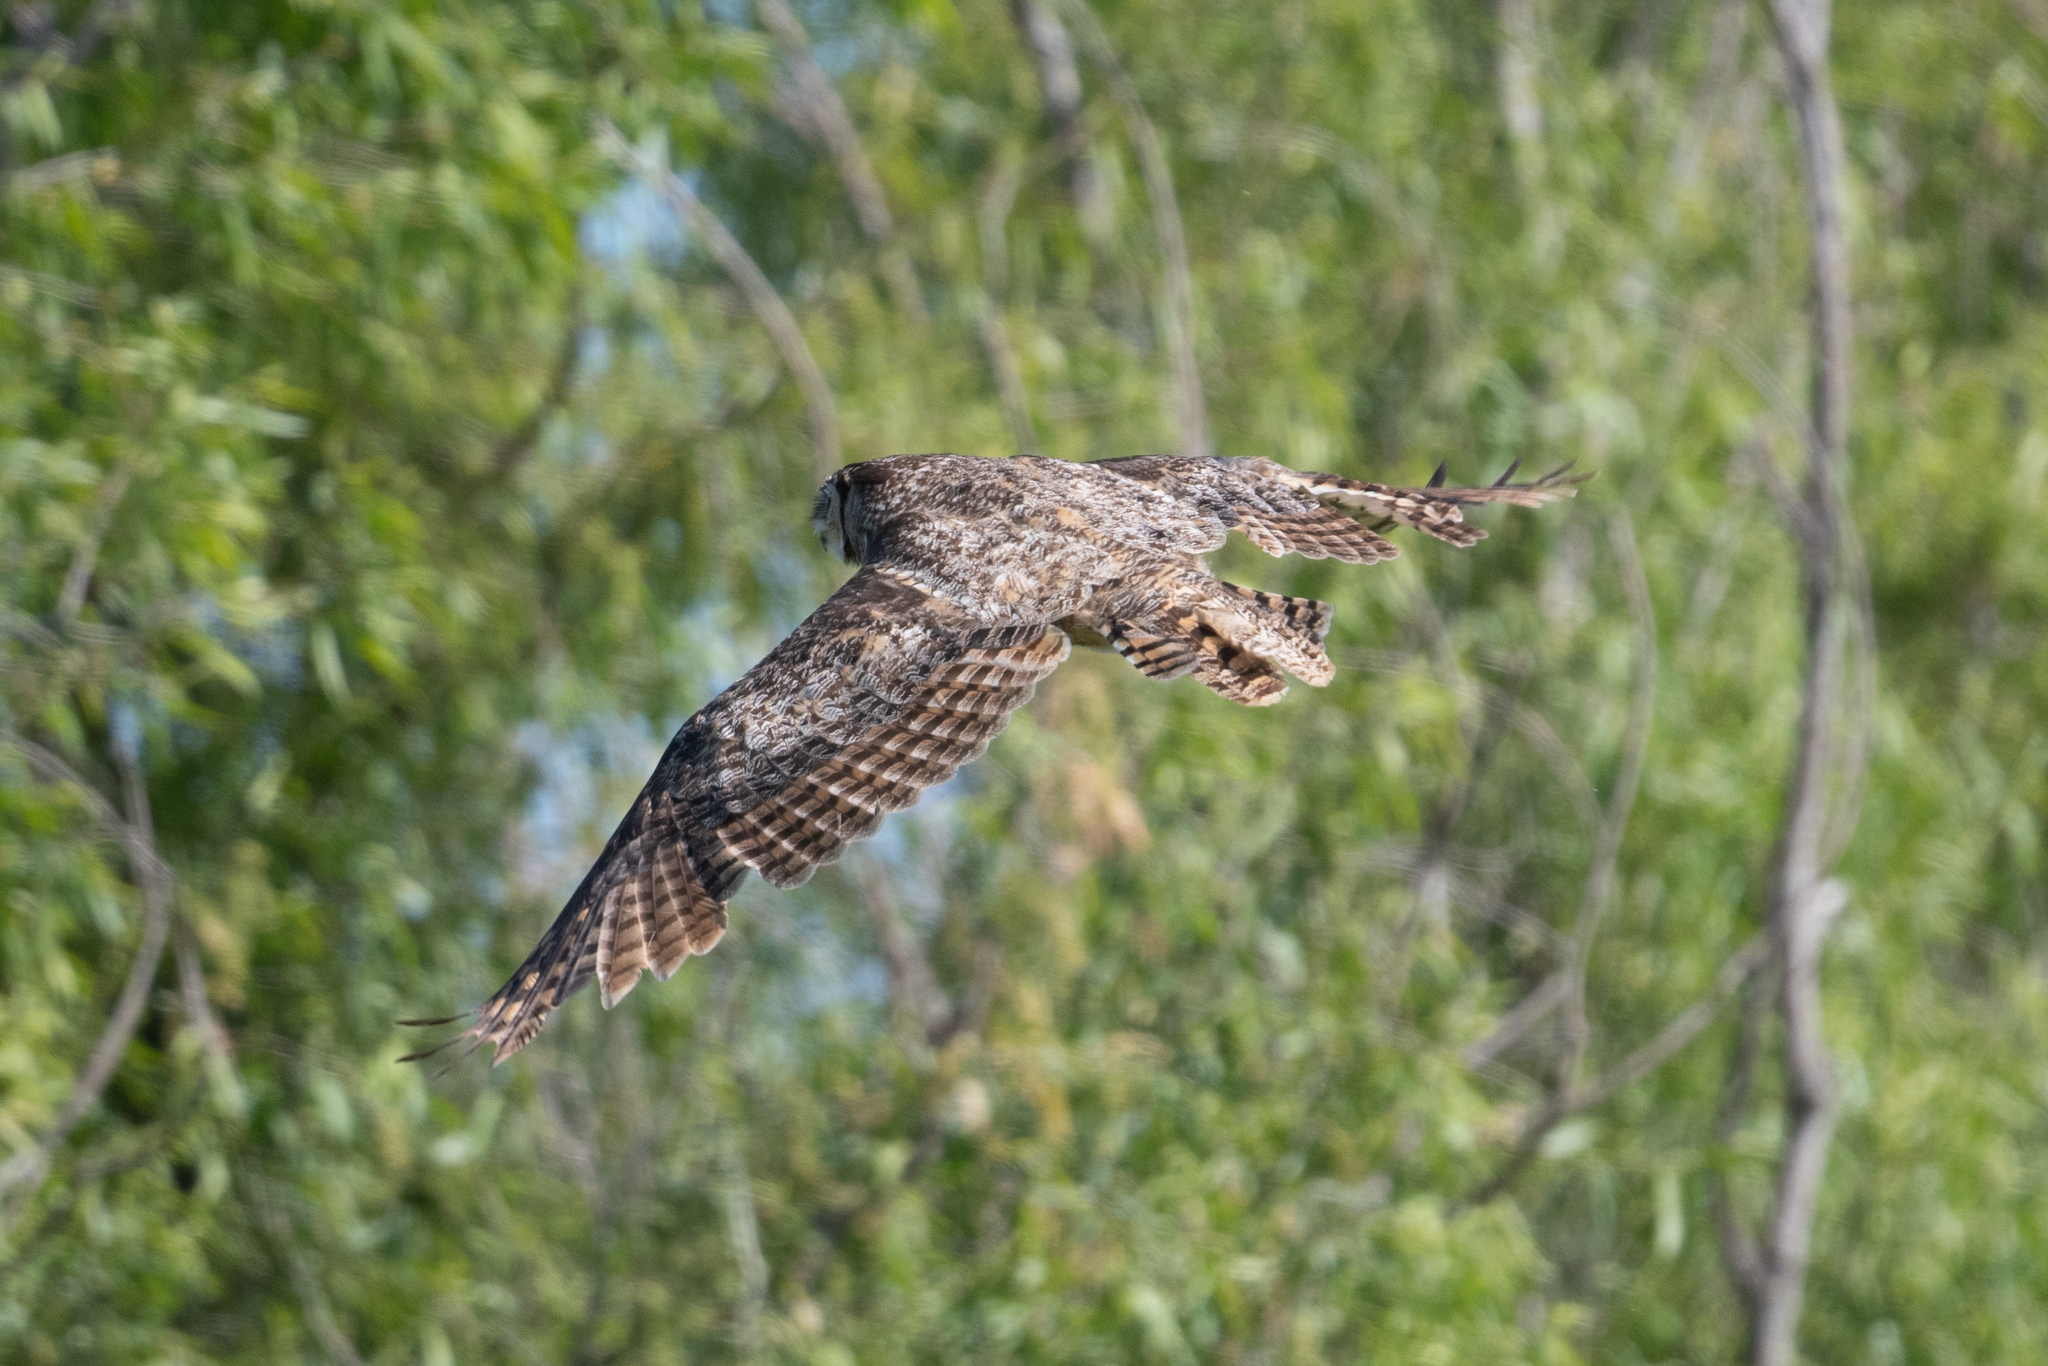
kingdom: Animalia
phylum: Chordata
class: Aves
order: Strigiformes
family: Strigidae
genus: Bubo
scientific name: Bubo virginianus
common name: Great horned owl
